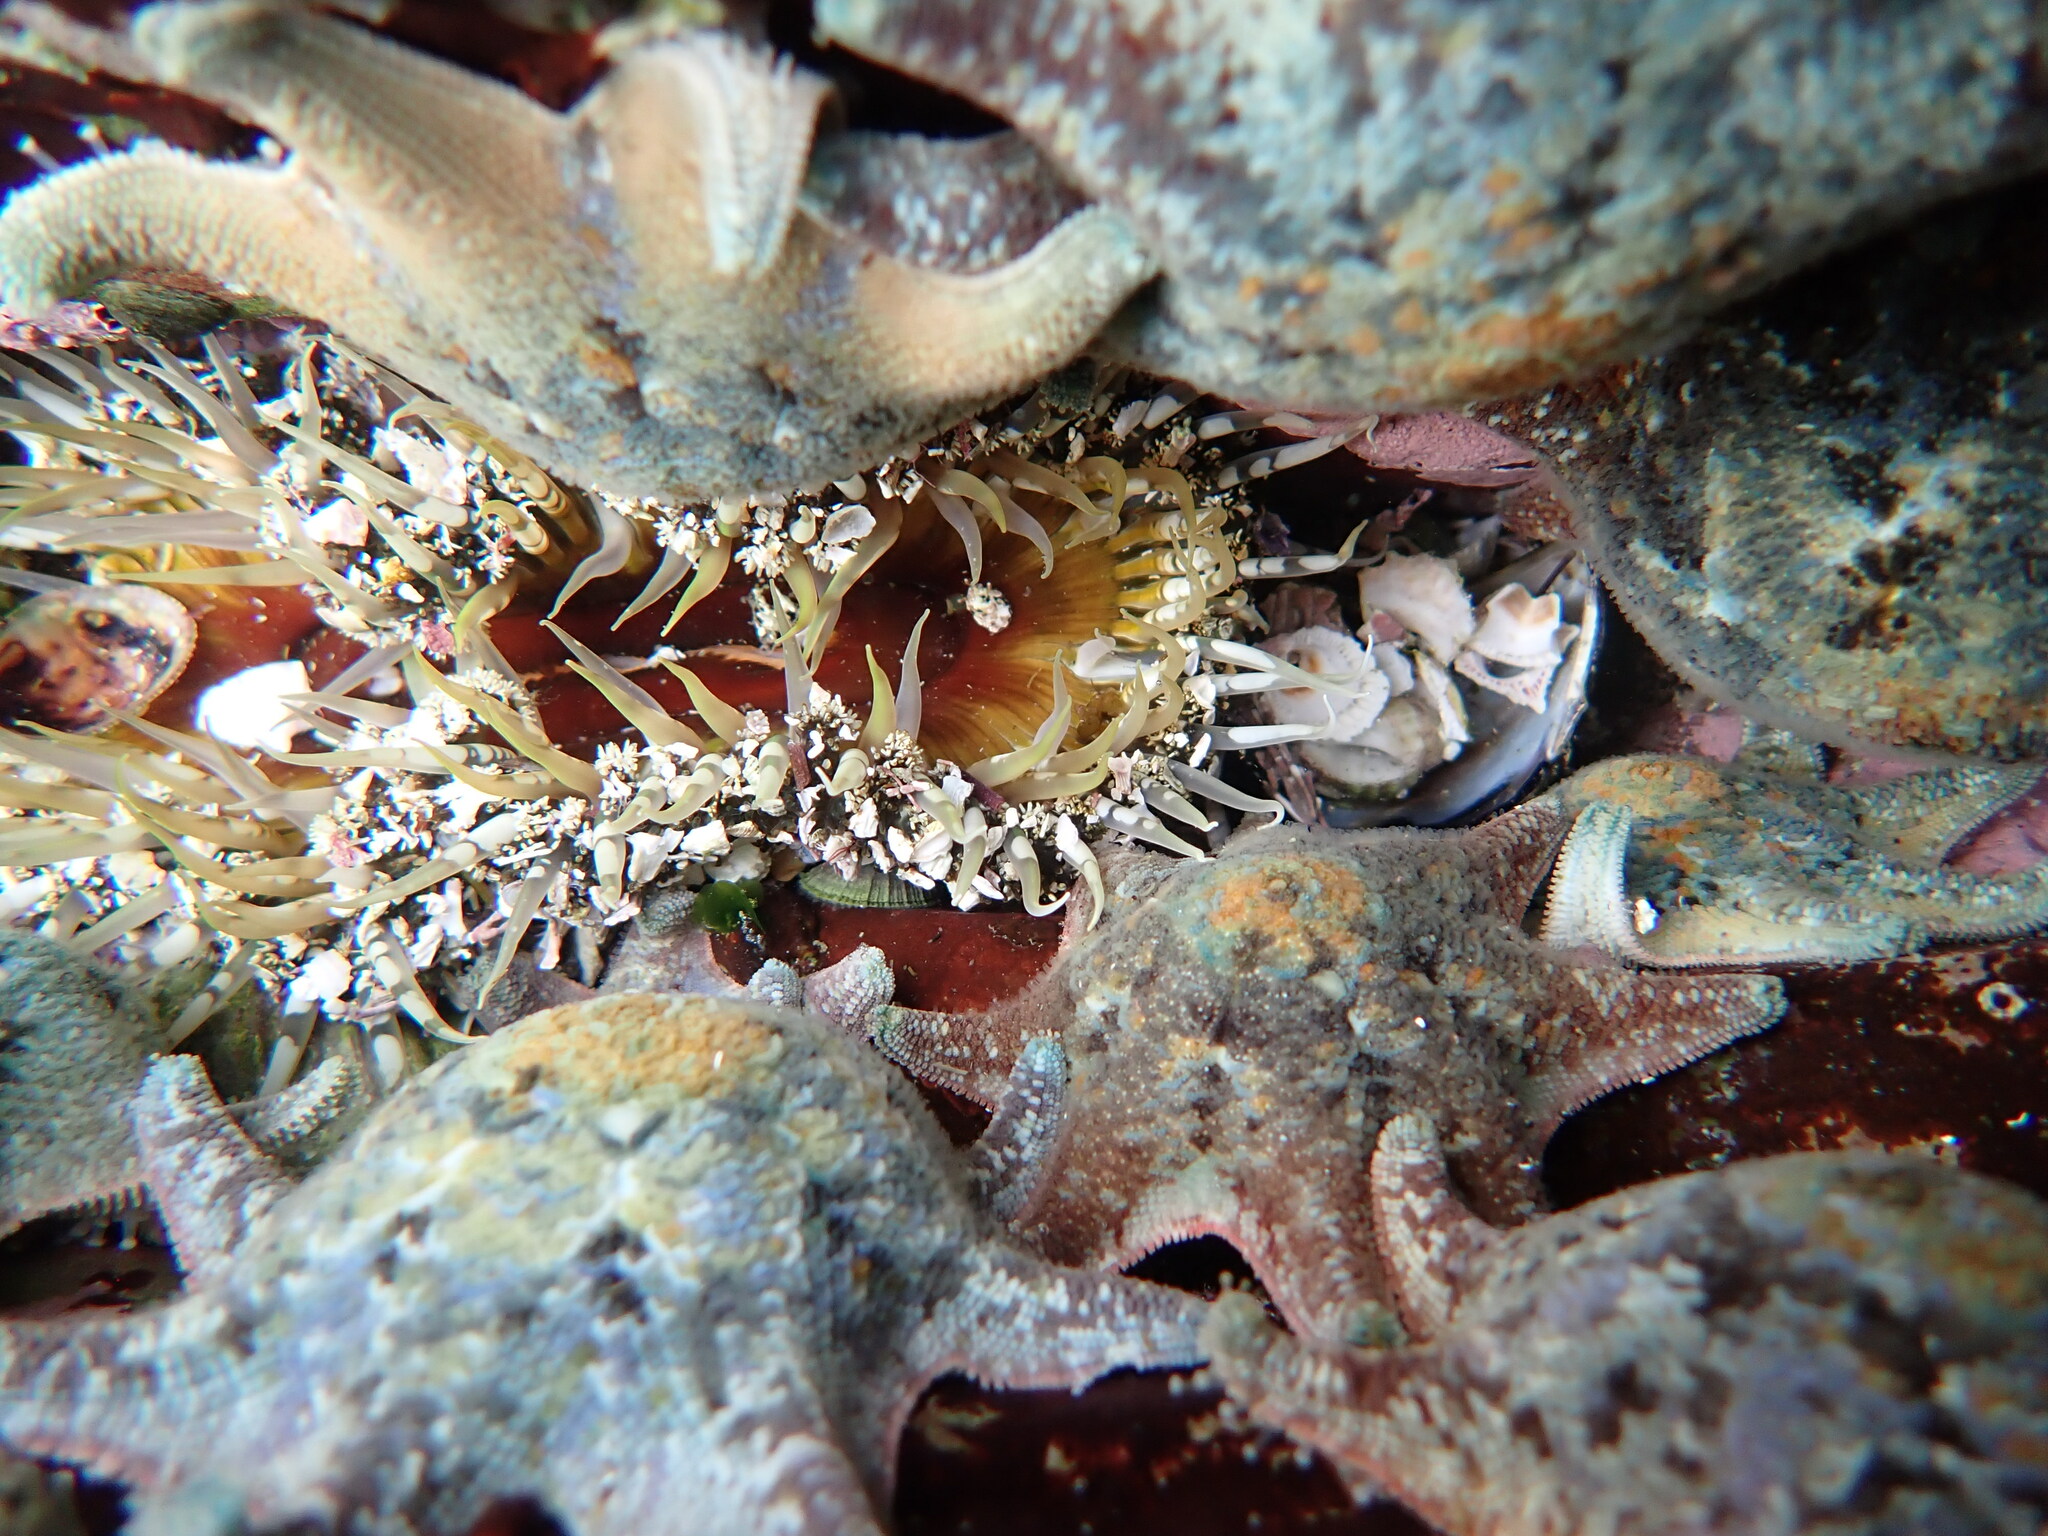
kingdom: Animalia
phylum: Cnidaria
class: Anthozoa
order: Actiniaria
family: Actiniidae
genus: Aulactinia
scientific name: Aulactinia veratra
